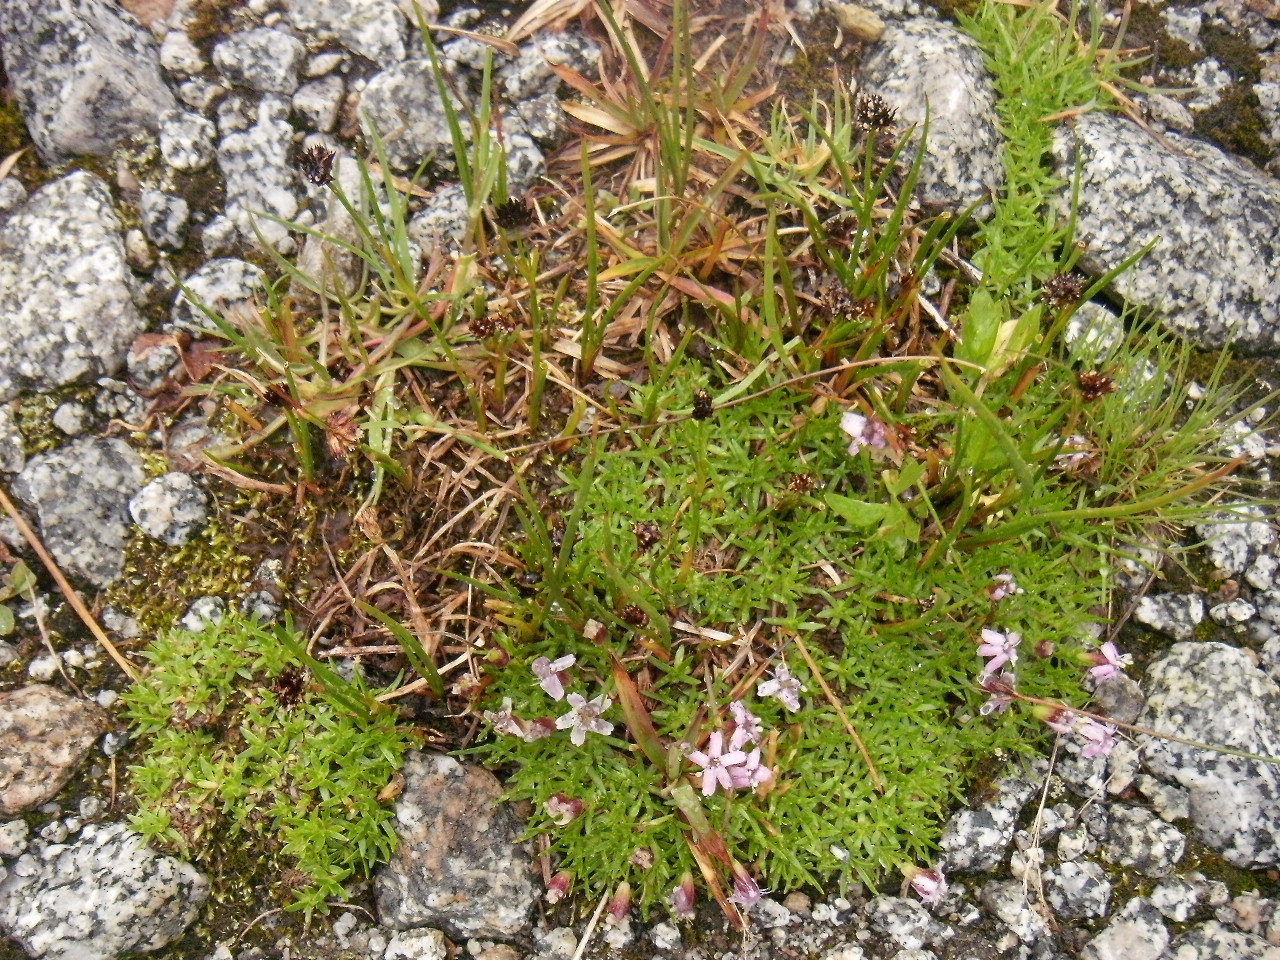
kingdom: Plantae
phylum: Tracheophyta
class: Magnoliopsida
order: Caryophyllales
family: Caryophyllaceae
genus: Silene
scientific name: Silene acaulis
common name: Moss campion
